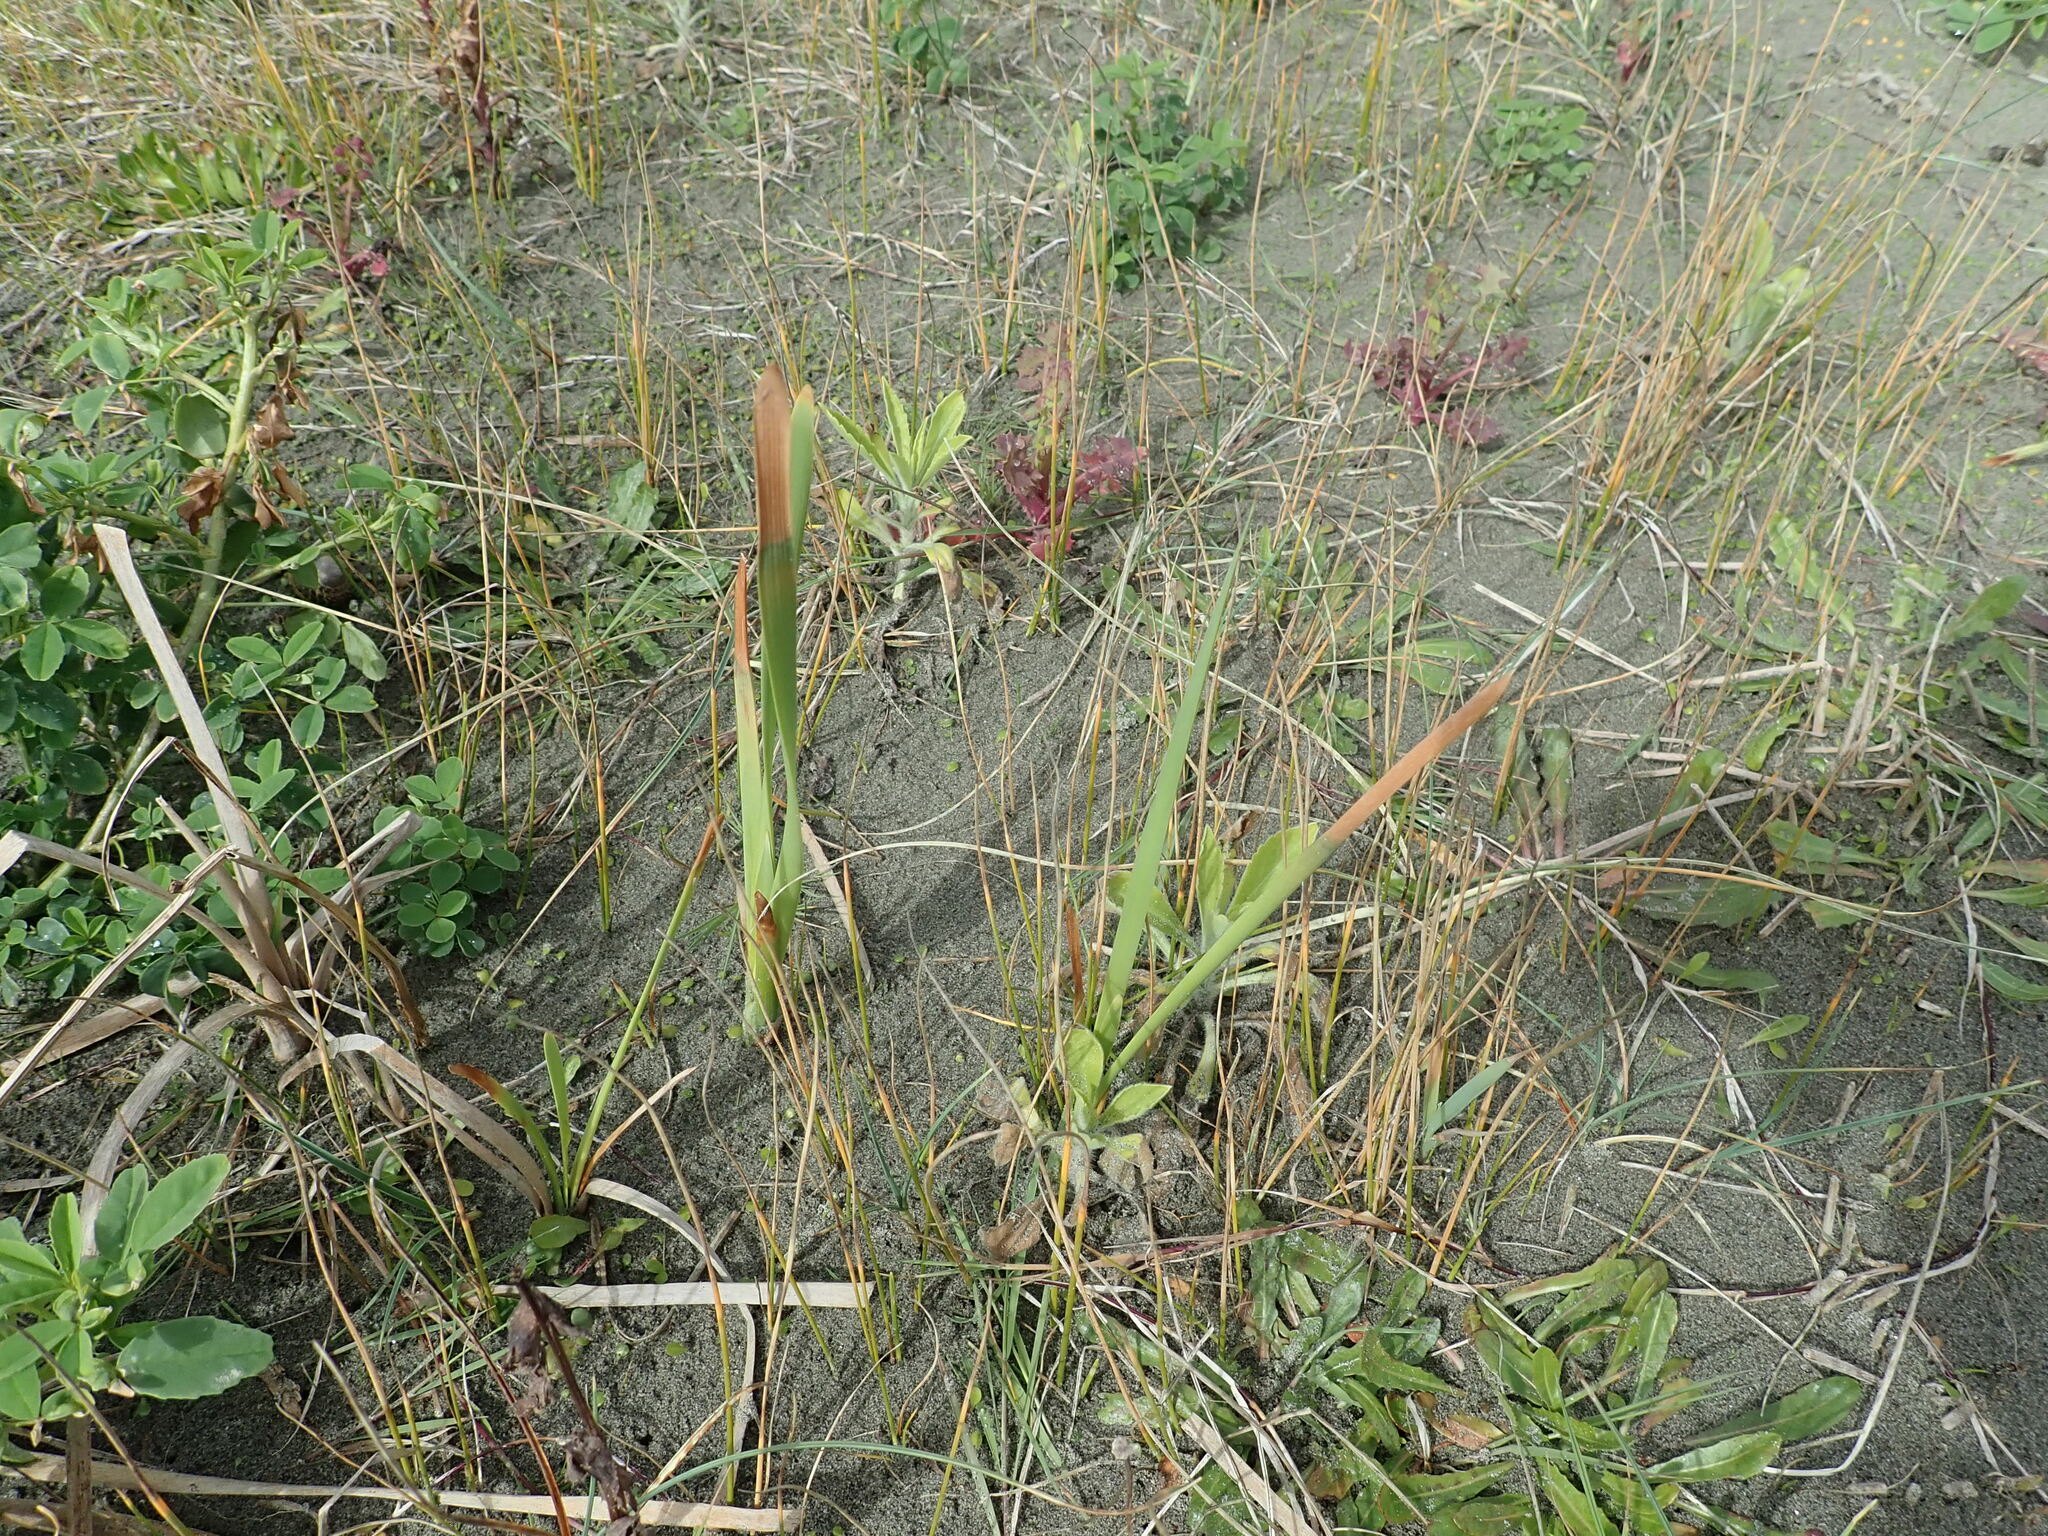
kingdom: Plantae
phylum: Tracheophyta
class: Liliopsida
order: Poales
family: Typhaceae
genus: Typha
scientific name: Typha orientalis
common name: Bullrush
